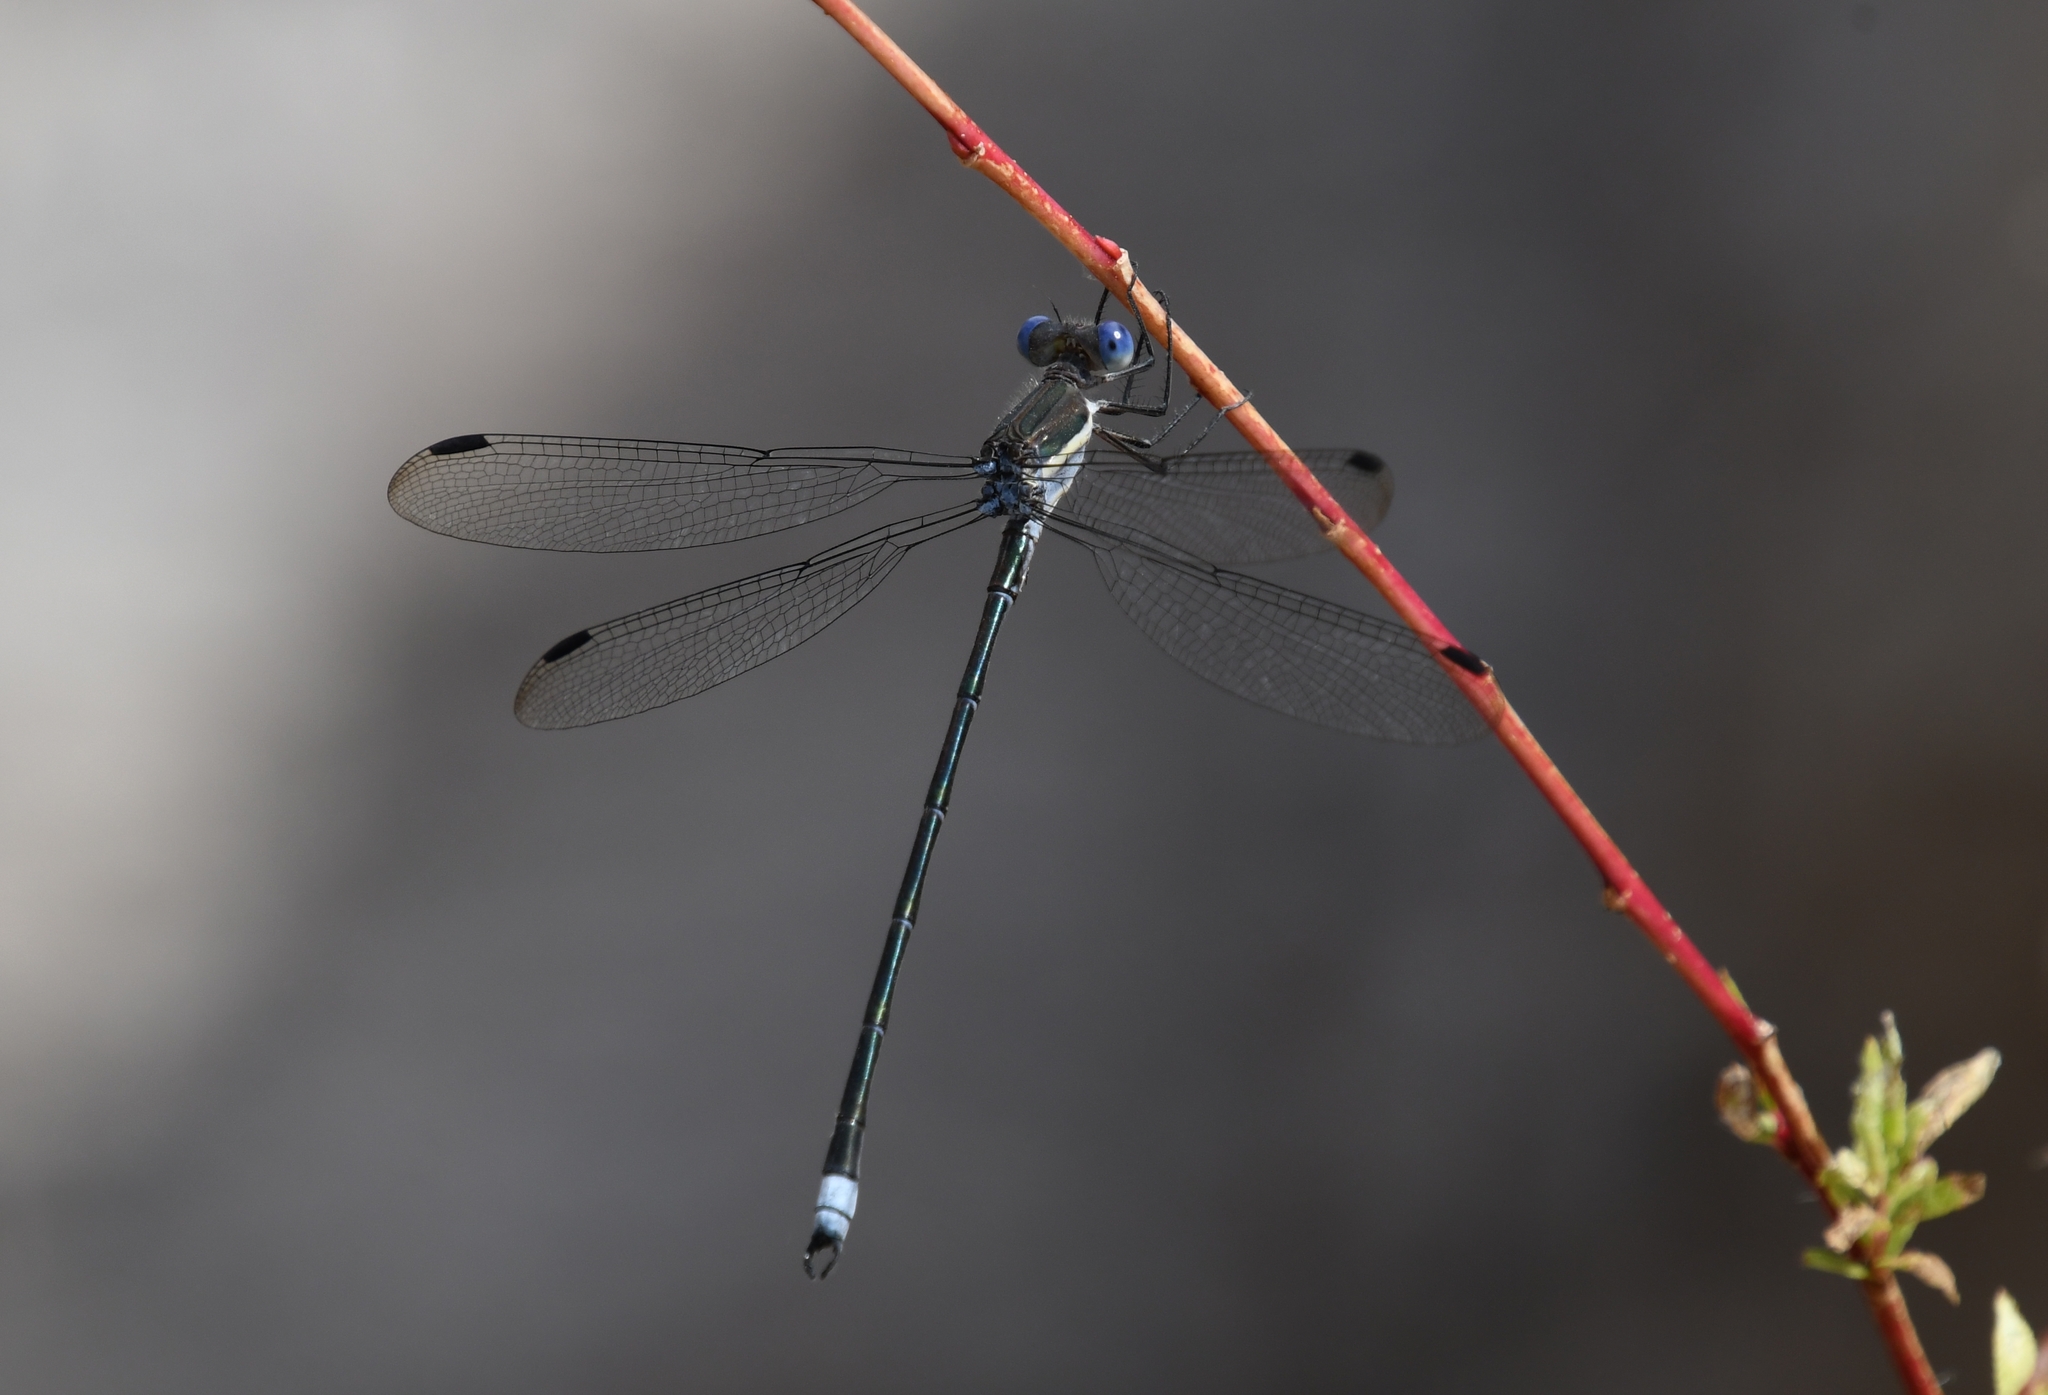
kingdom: Animalia
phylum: Arthropoda
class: Insecta
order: Odonata
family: Lestidae
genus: Archilestes
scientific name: Archilestes grandis
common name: Great spreadwing
